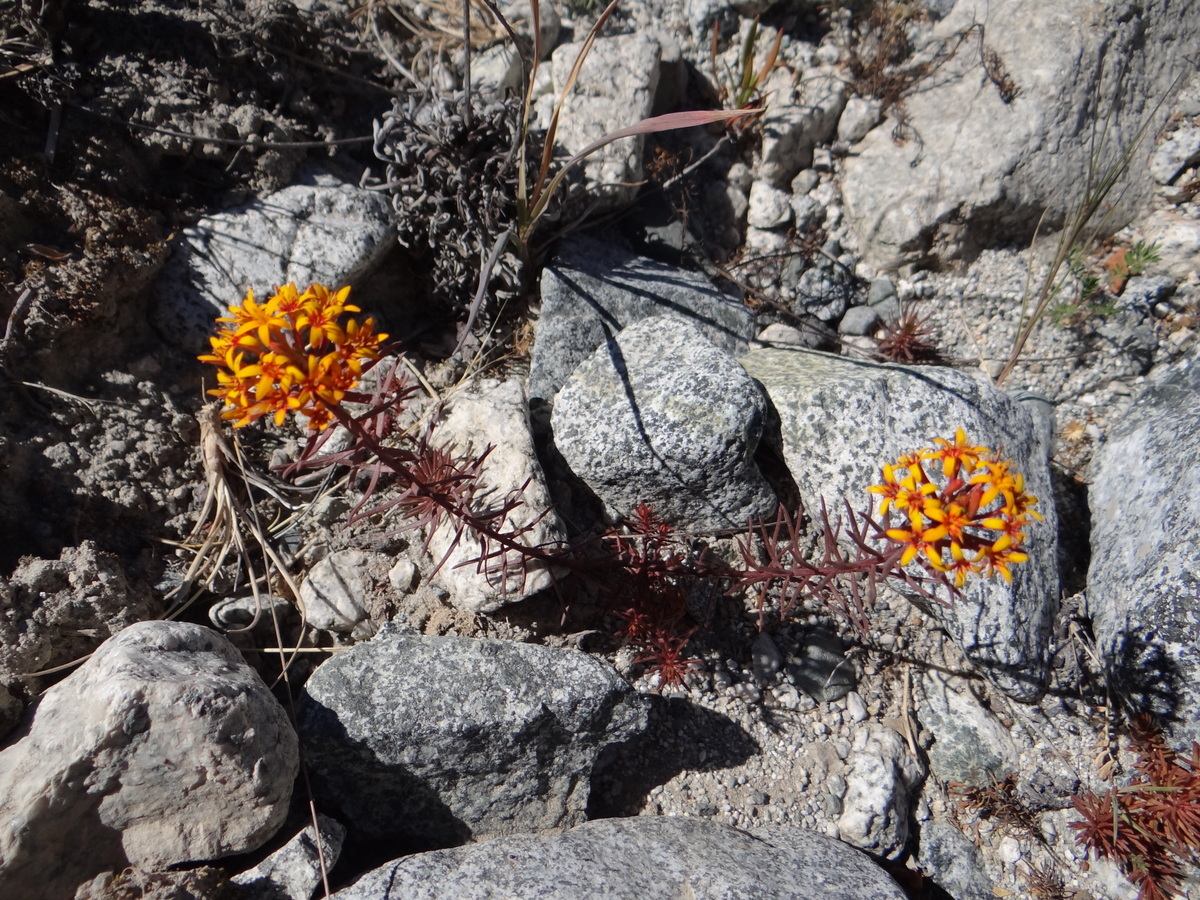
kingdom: Plantae
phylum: Tracheophyta
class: Magnoliopsida
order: Santalales
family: Schoepfiaceae
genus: Quinchamalium
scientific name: Quinchamalium chilense
